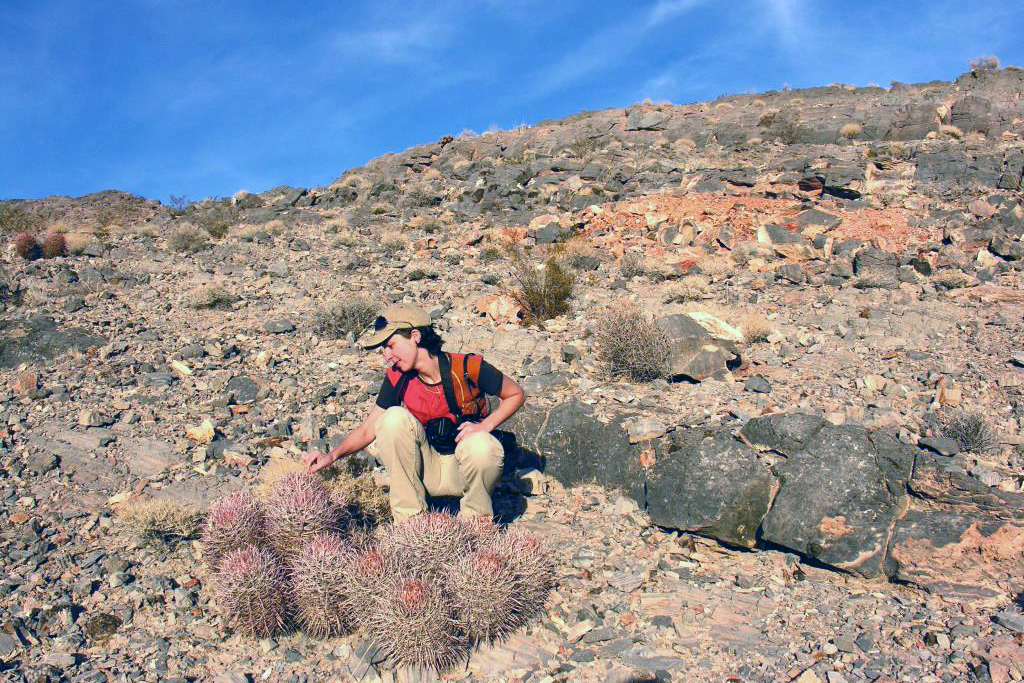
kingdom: Plantae
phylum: Tracheophyta
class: Magnoliopsida
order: Caryophyllales
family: Cactaceae
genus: Echinocactus
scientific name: Echinocactus polycephalus
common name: Cottontop cactus
